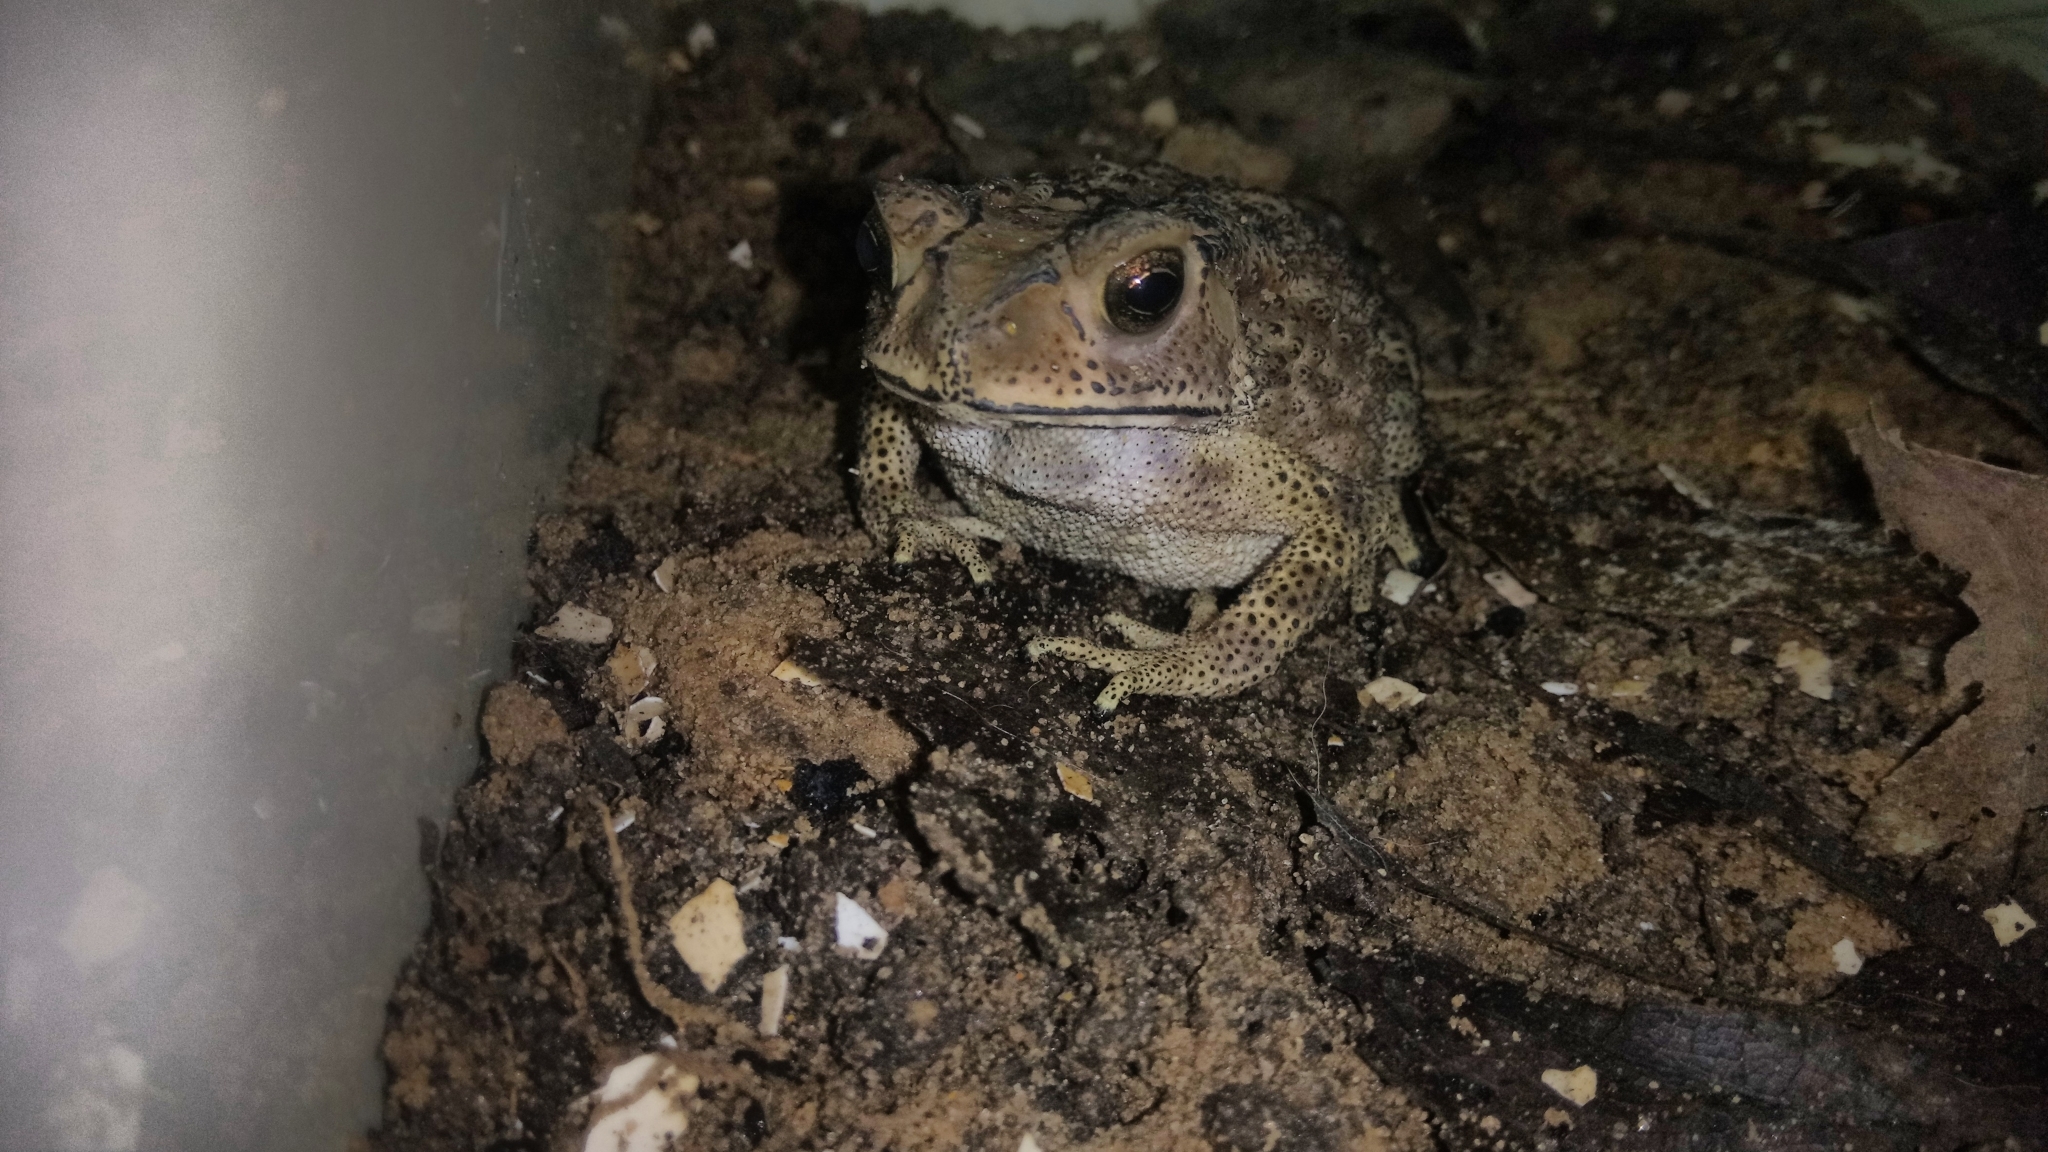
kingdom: Animalia
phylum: Chordata
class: Amphibia
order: Anura
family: Bufonidae
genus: Duttaphrynus
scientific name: Duttaphrynus melanostictus
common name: Common sunda toad
